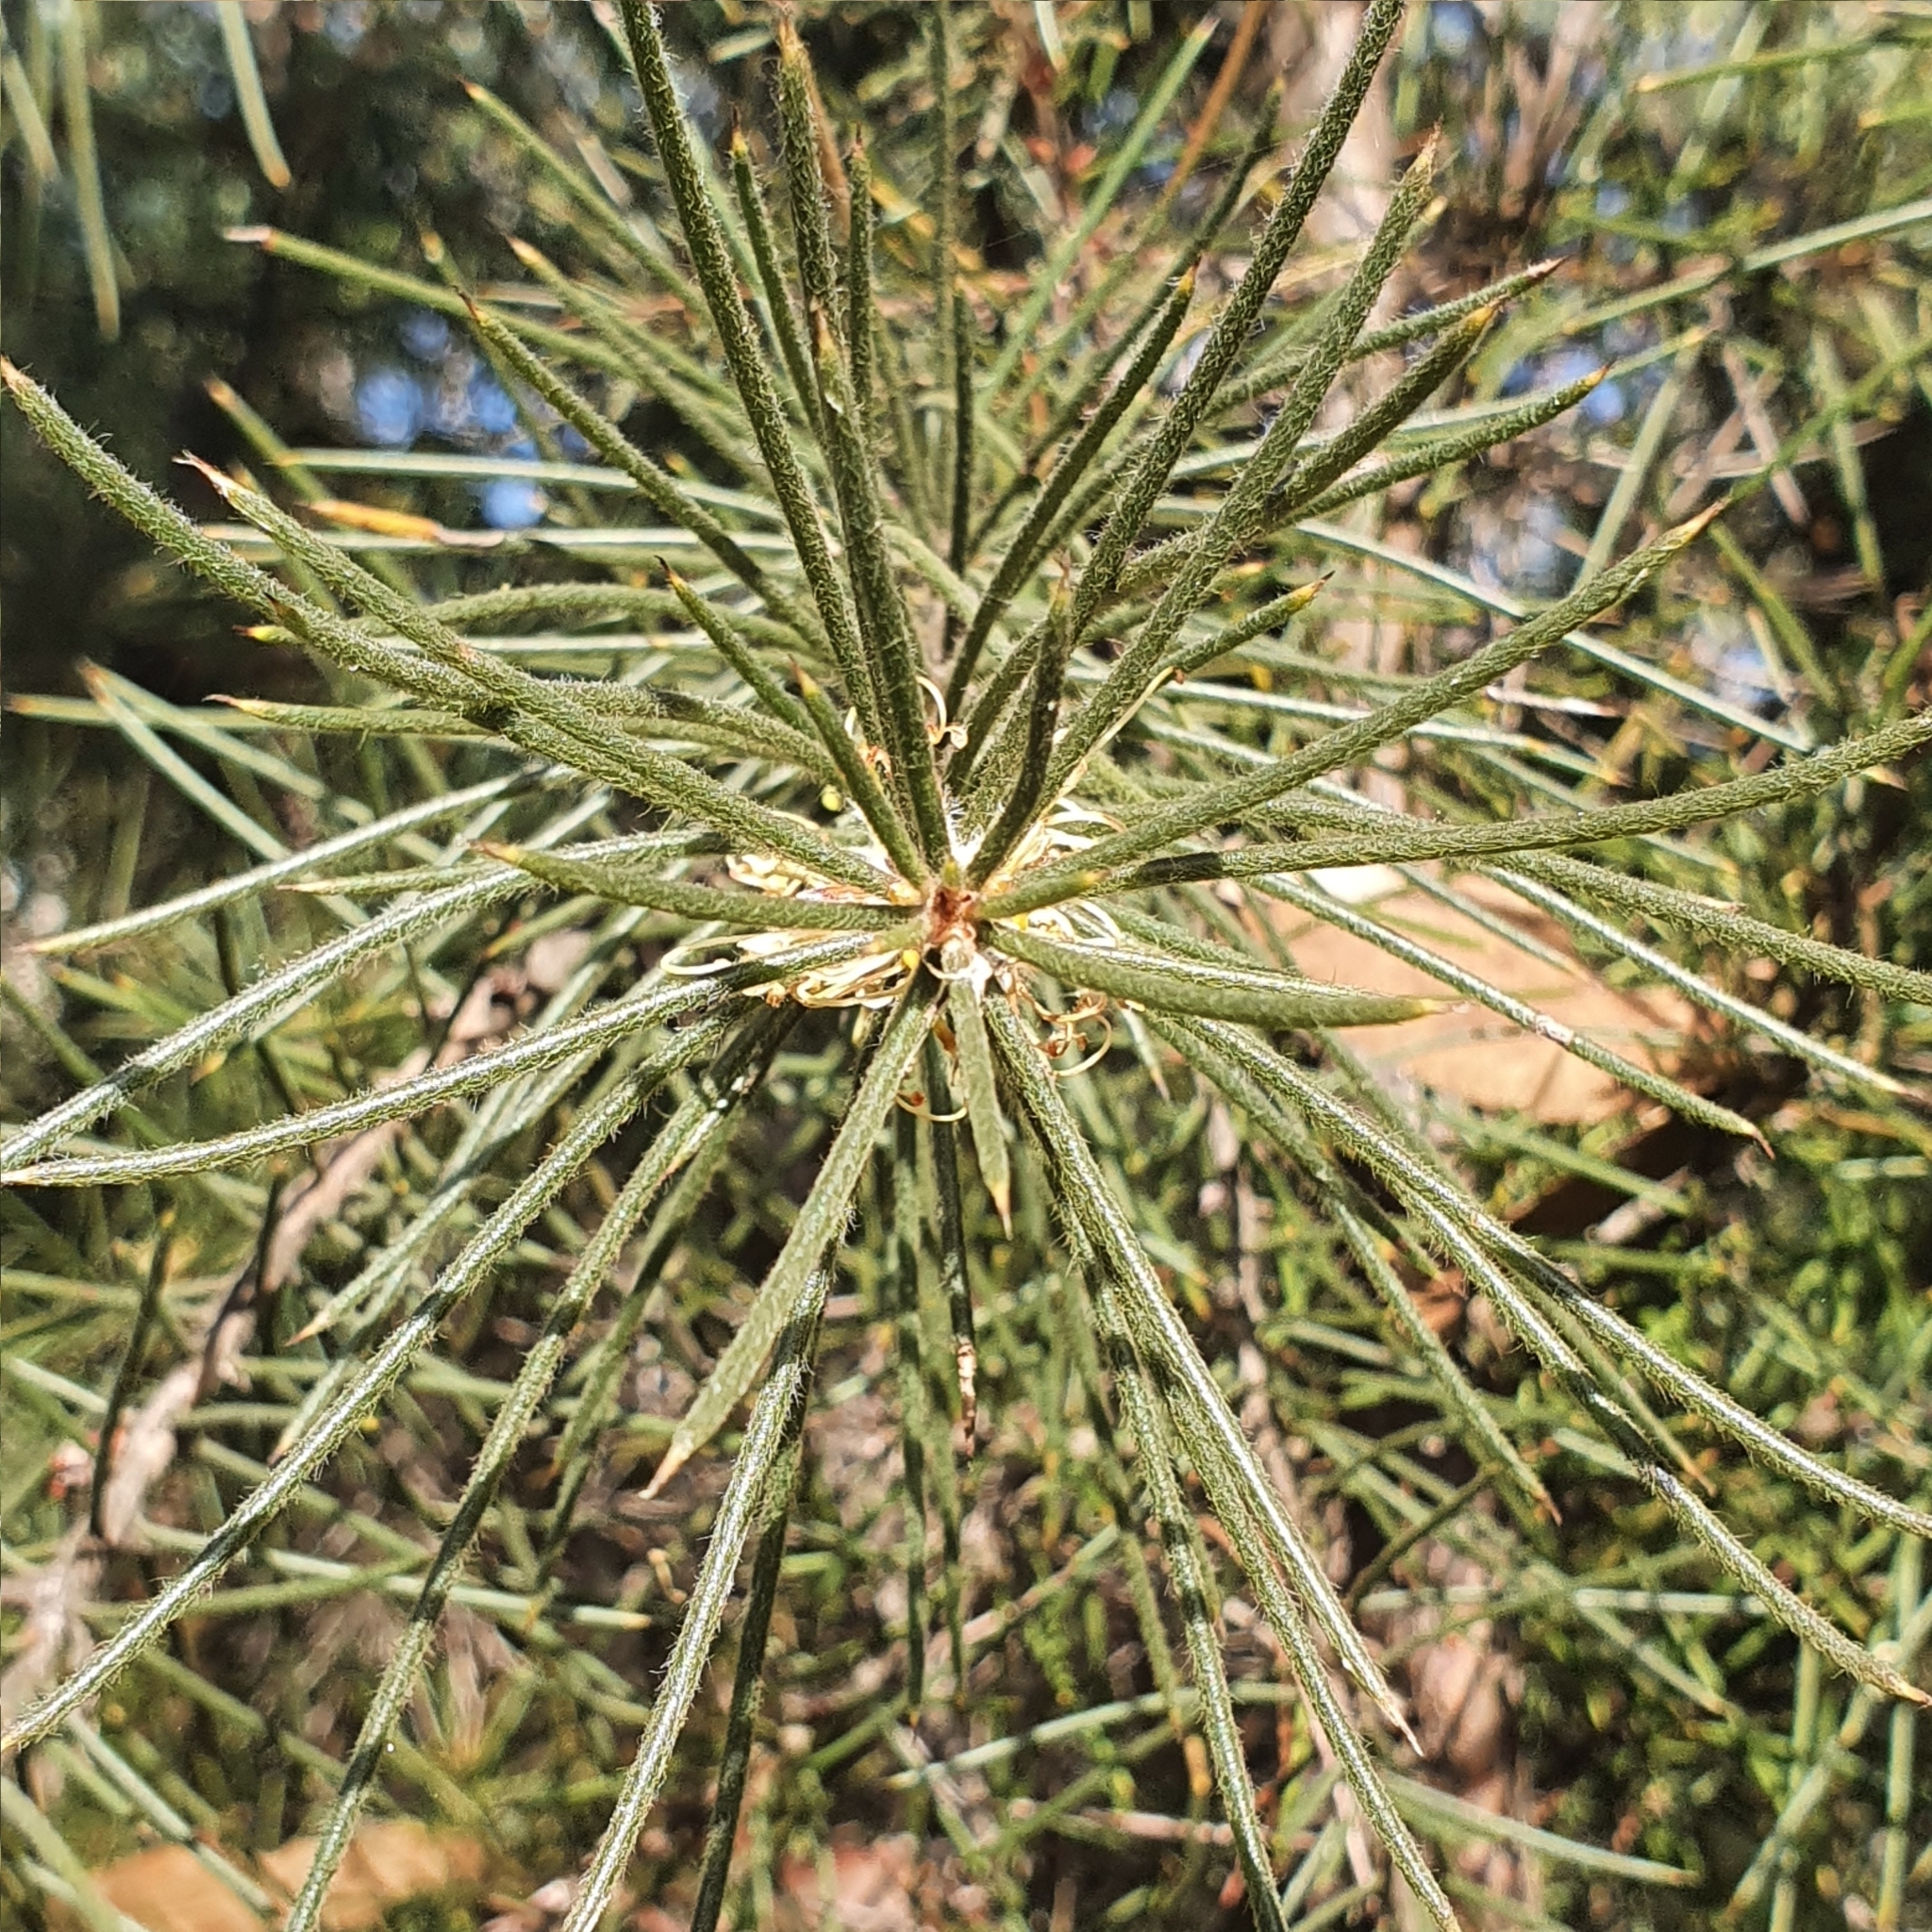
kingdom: Plantae
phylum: Tracheophyta
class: Magnoliopsida
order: Proteales
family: Proteaceae
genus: Hakea
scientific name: Hakea gibbosa
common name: Rock hakea
